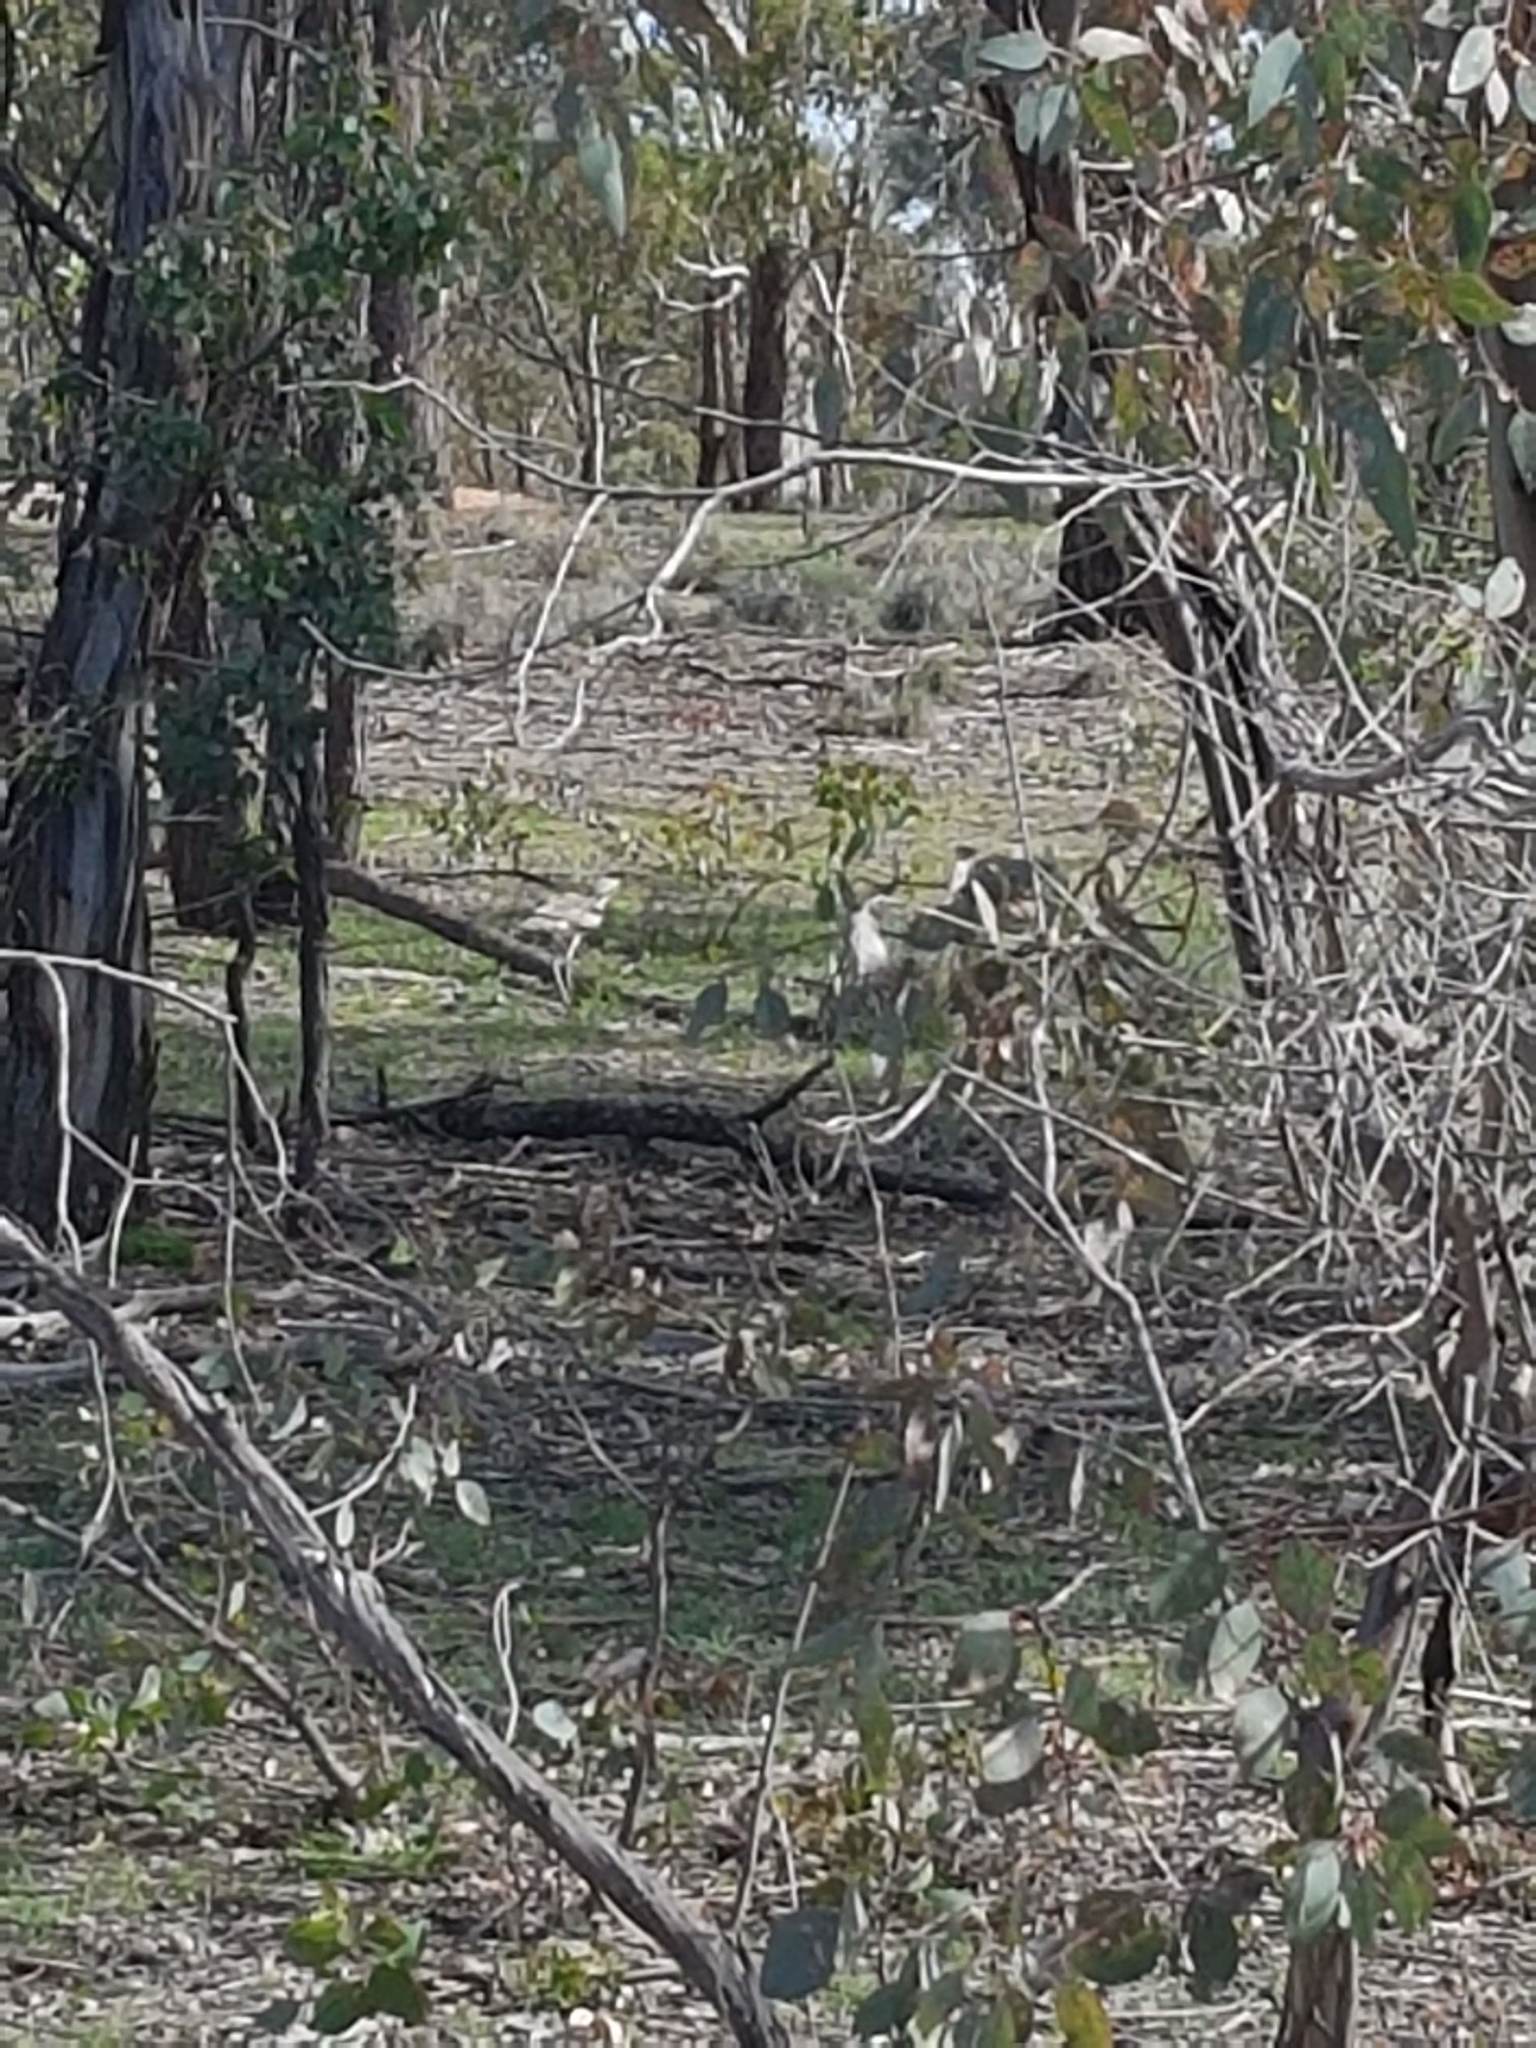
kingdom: Animalia
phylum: Chordata
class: Aves
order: Charadriiformes
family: Burhinidae
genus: Burhinus
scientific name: Burhinus grallarius
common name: Bush stone-curlew
